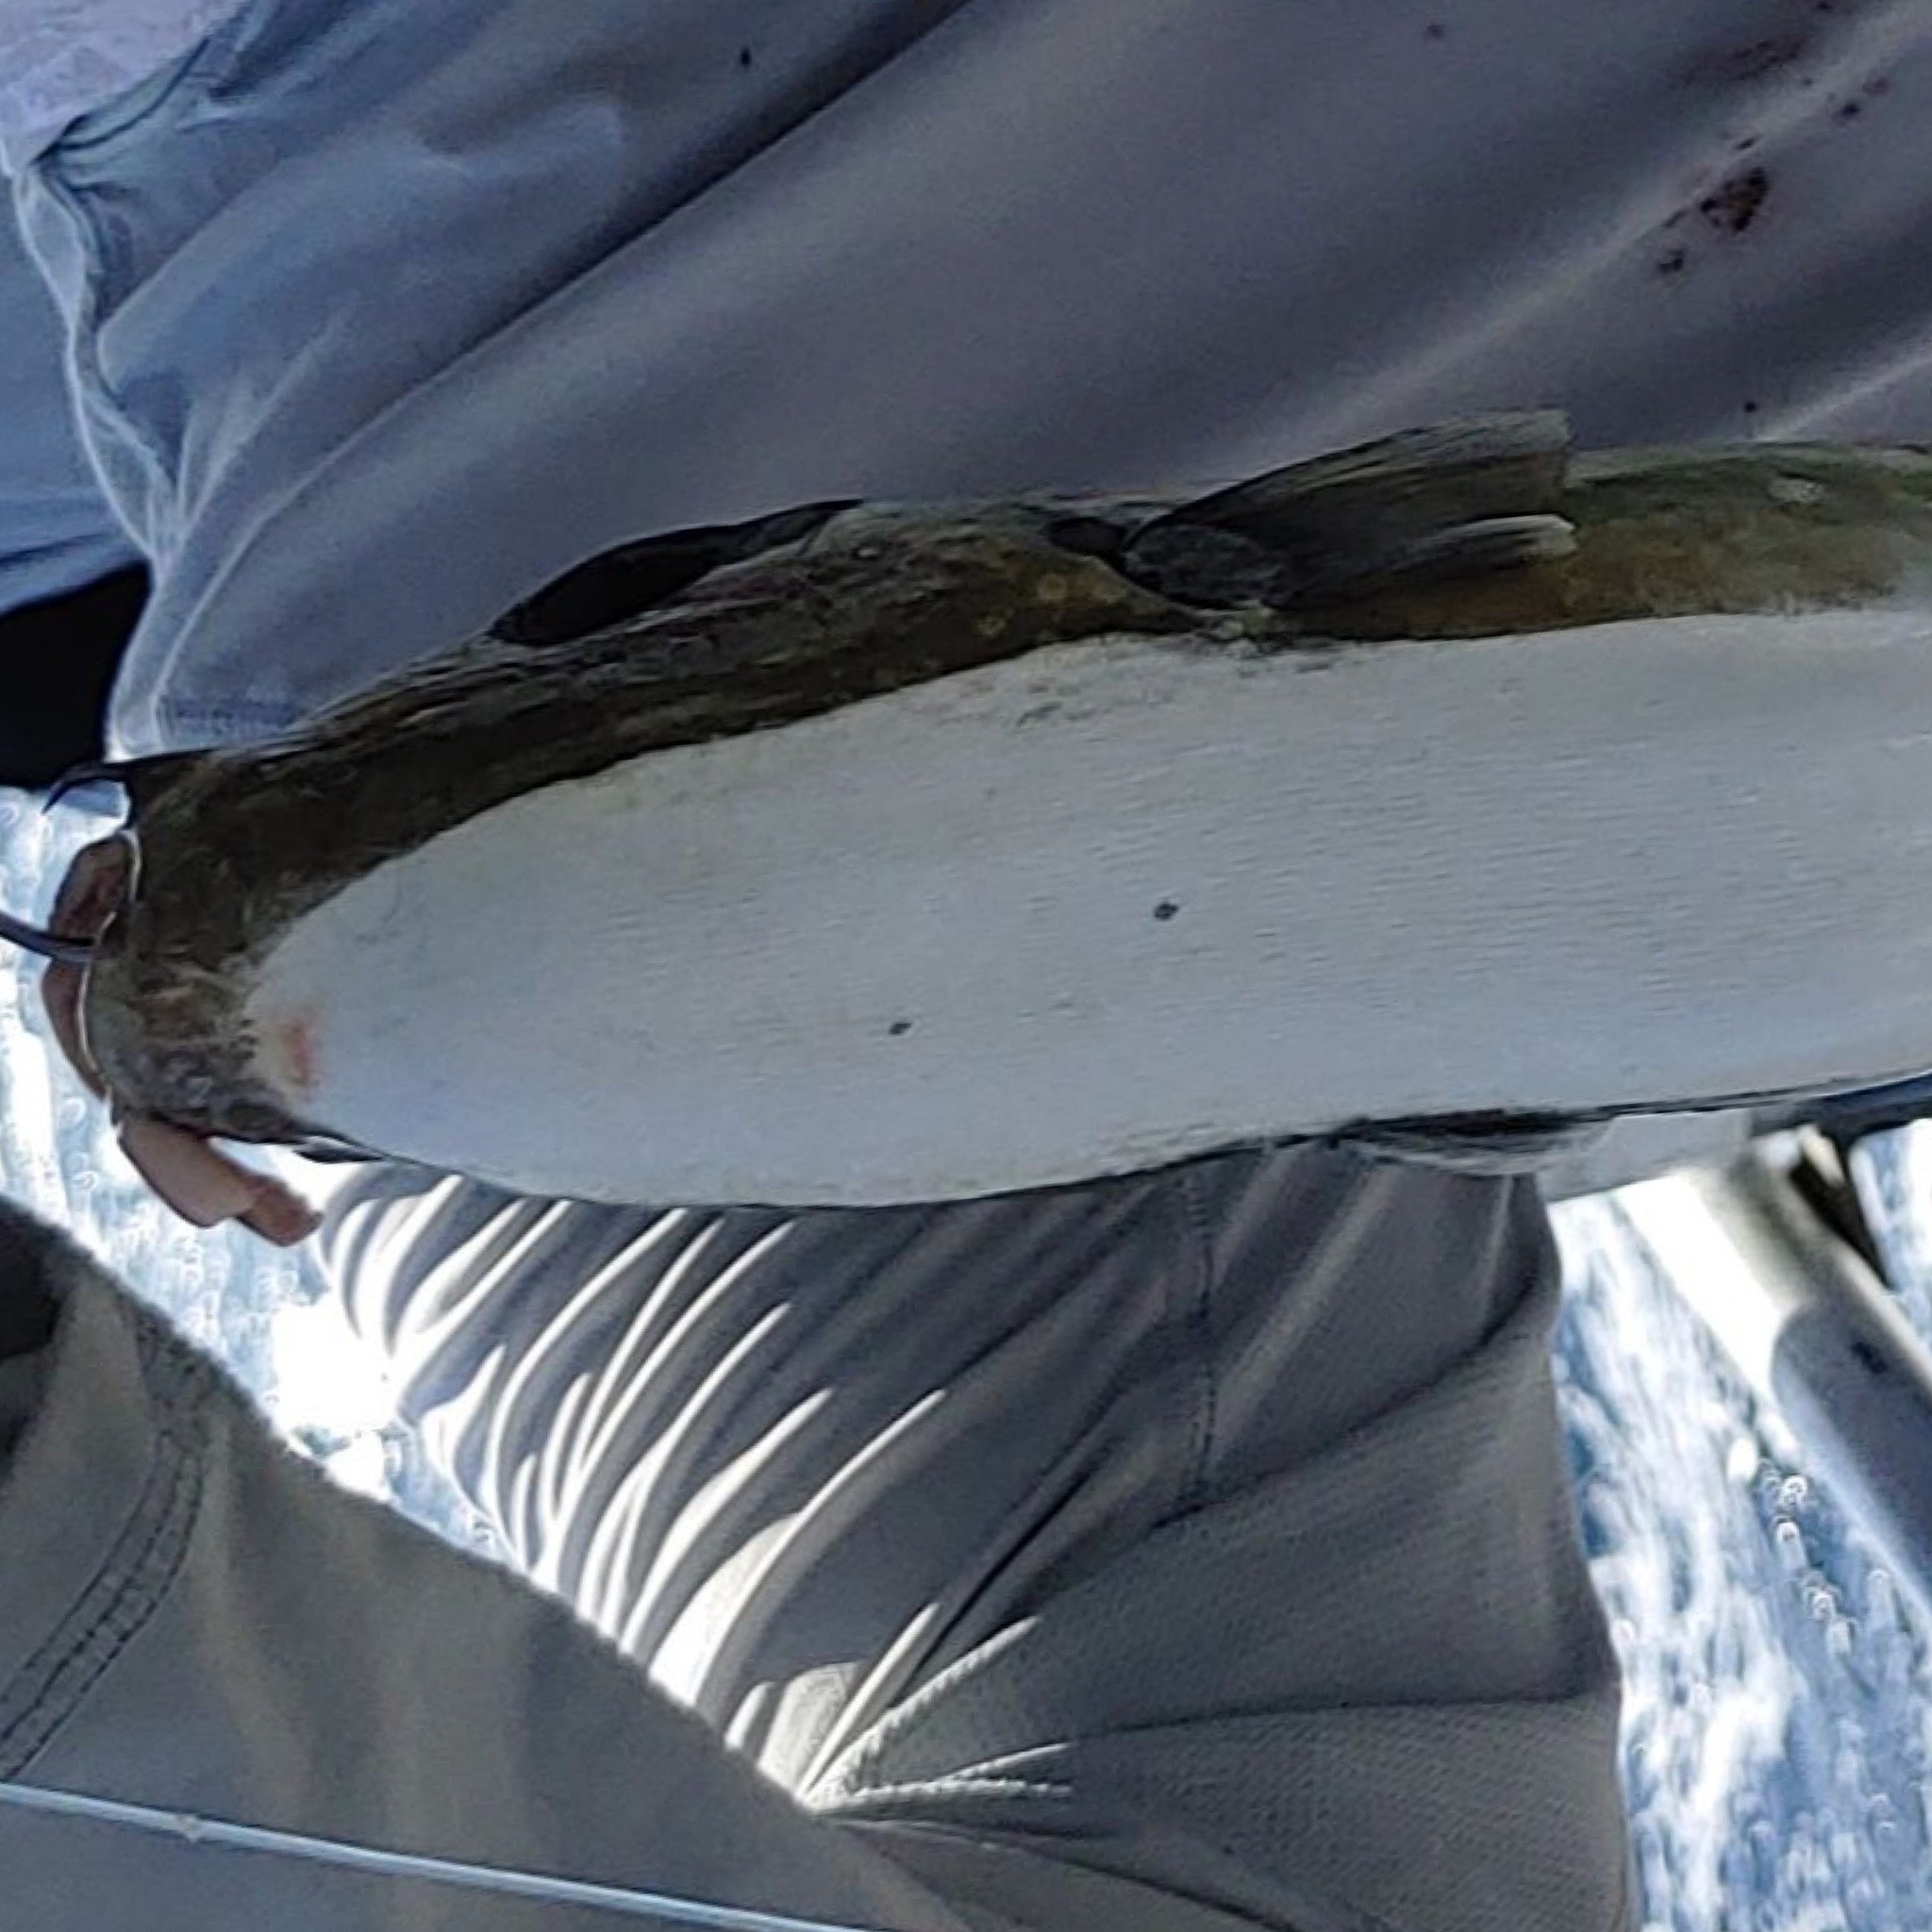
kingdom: Animalia
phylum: Chordata
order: Tetraodontiformes
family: Tetraodontidae
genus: Lagocephalus
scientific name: Lagocephalus laevigatus
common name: Puffer
